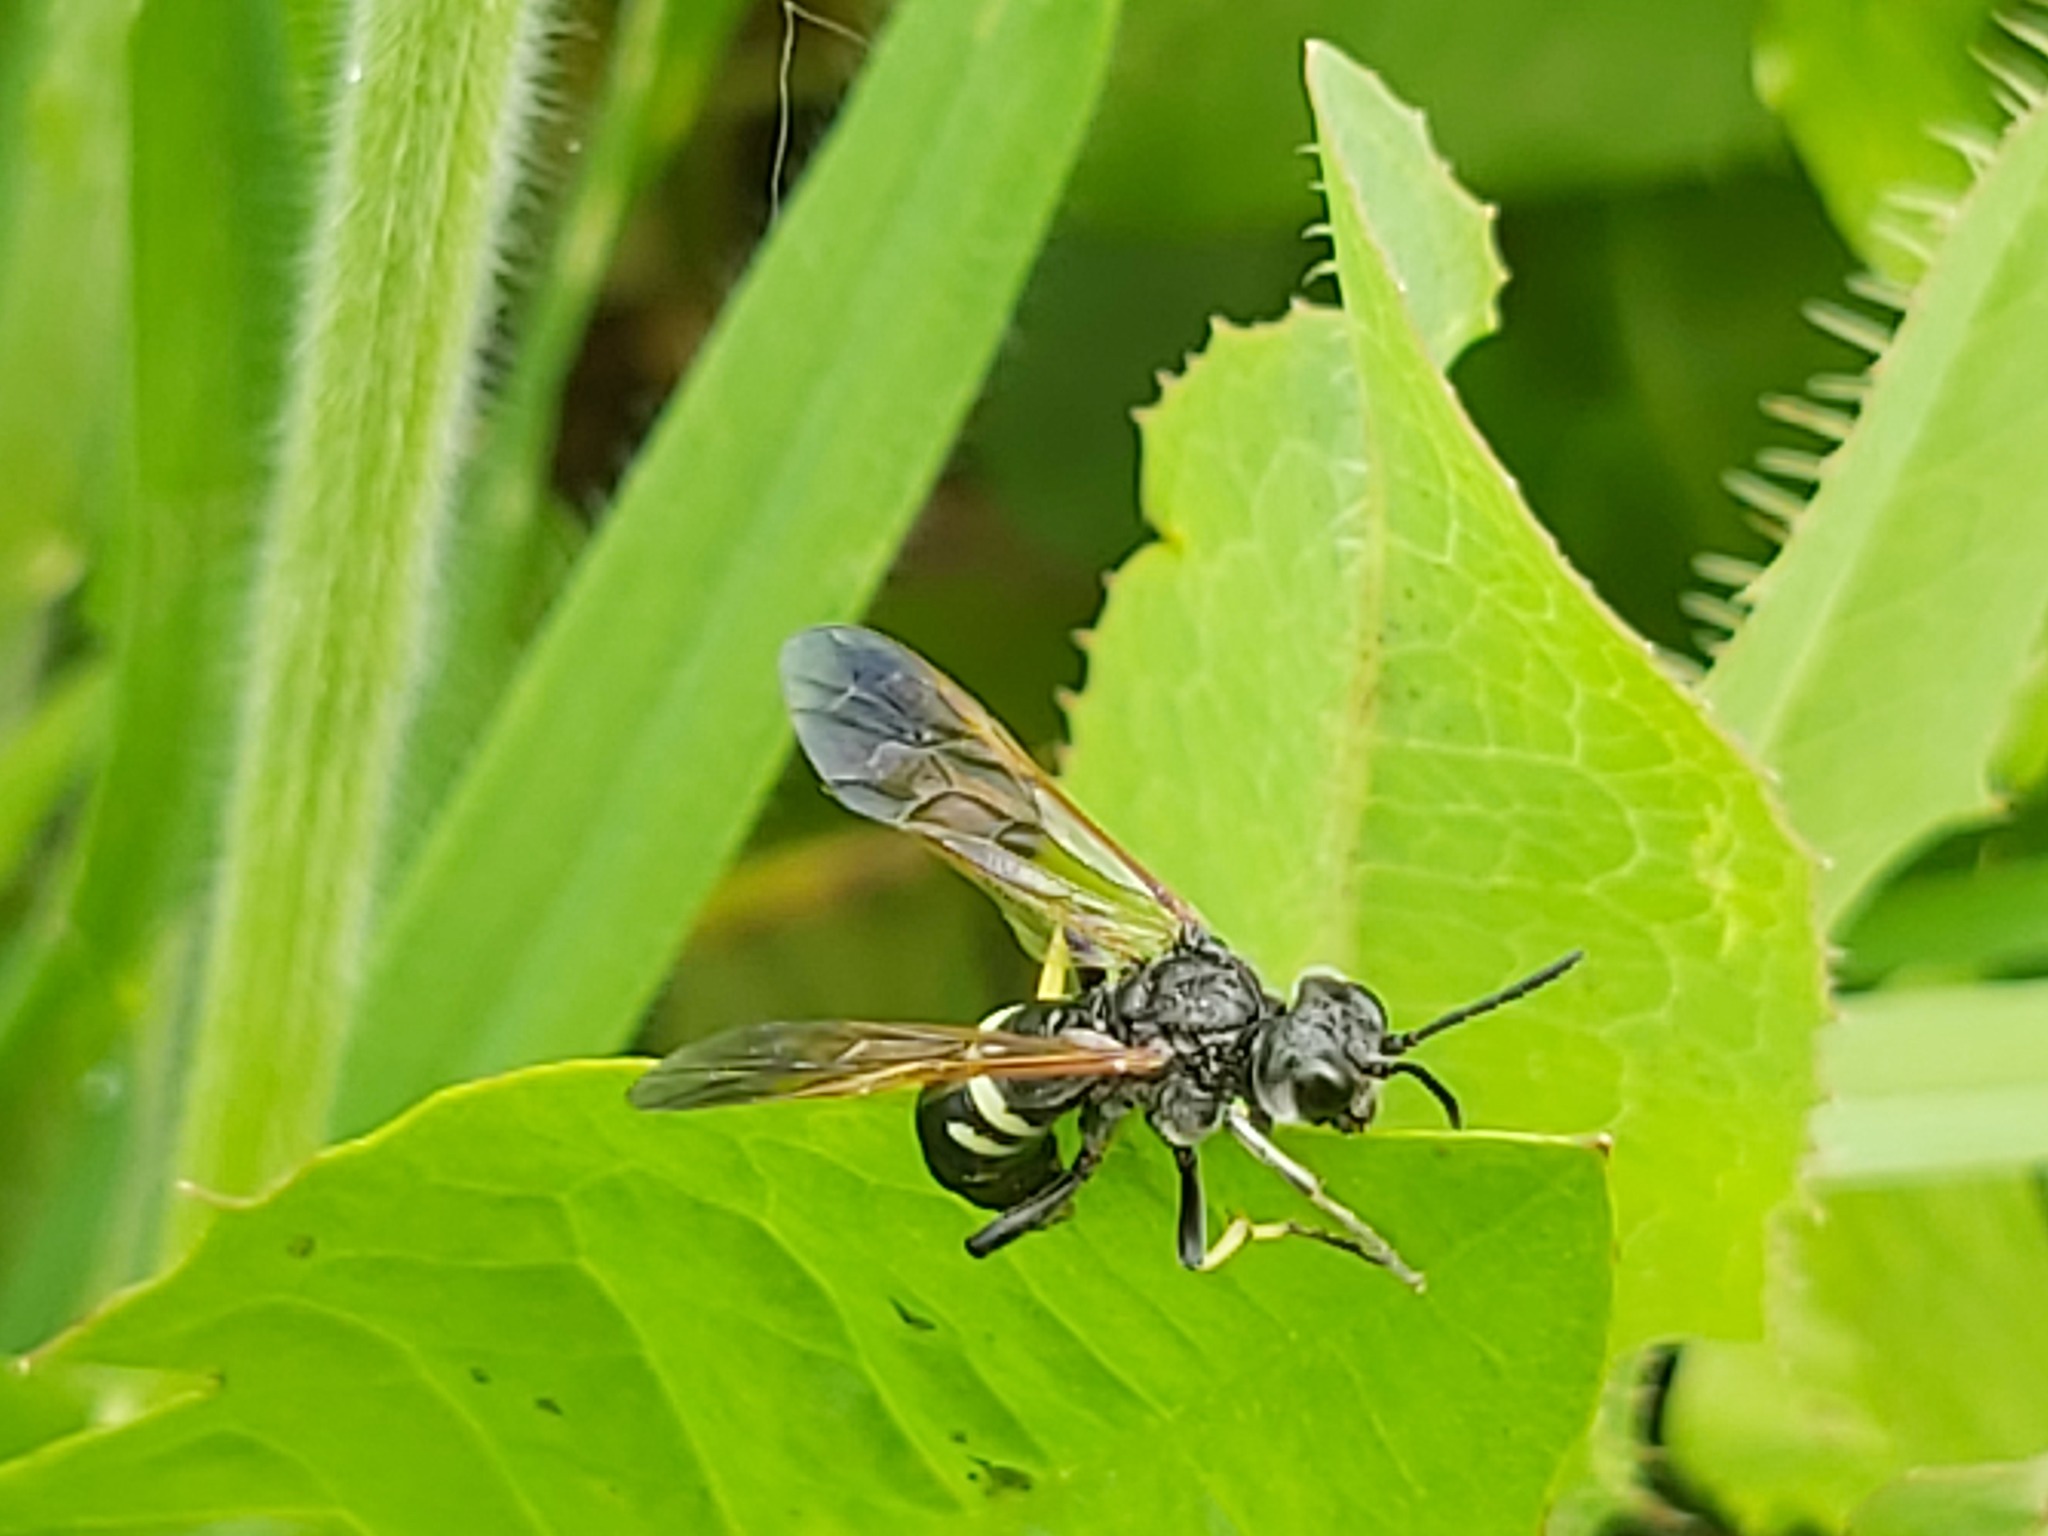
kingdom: Animalia
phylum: Arthropoda
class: Insecta
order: Hymenoptera
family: Tenthredinidae
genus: Tenthredo
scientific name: Tenthredo bifasciata
